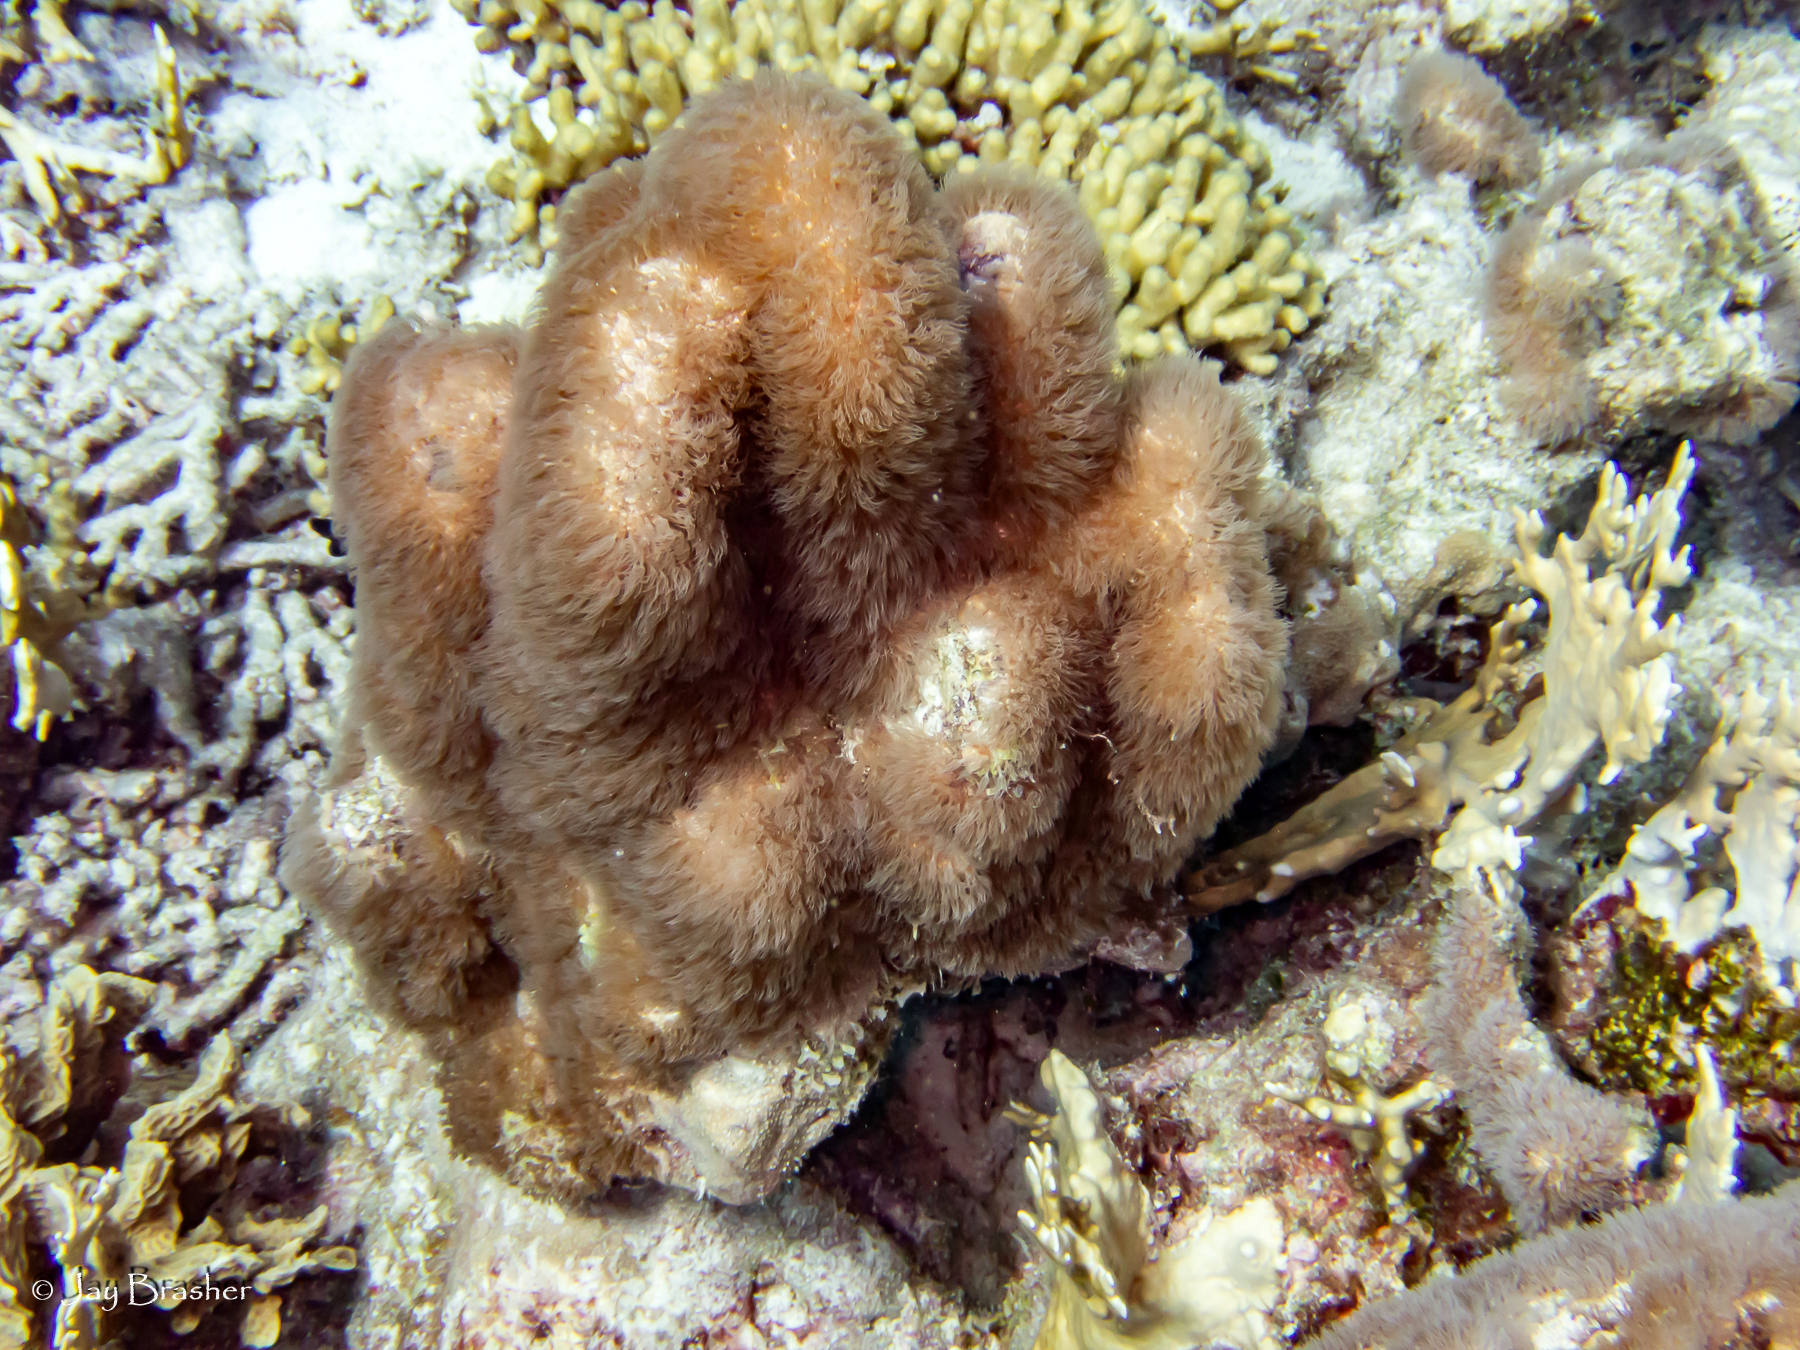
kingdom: Animalia
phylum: Cnidaria
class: Anthozoa
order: Scleralcyonacea
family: Erythropodiidae
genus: Erythropodium
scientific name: Erythropodium caribaeorum
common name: Encrusting gorgonian
